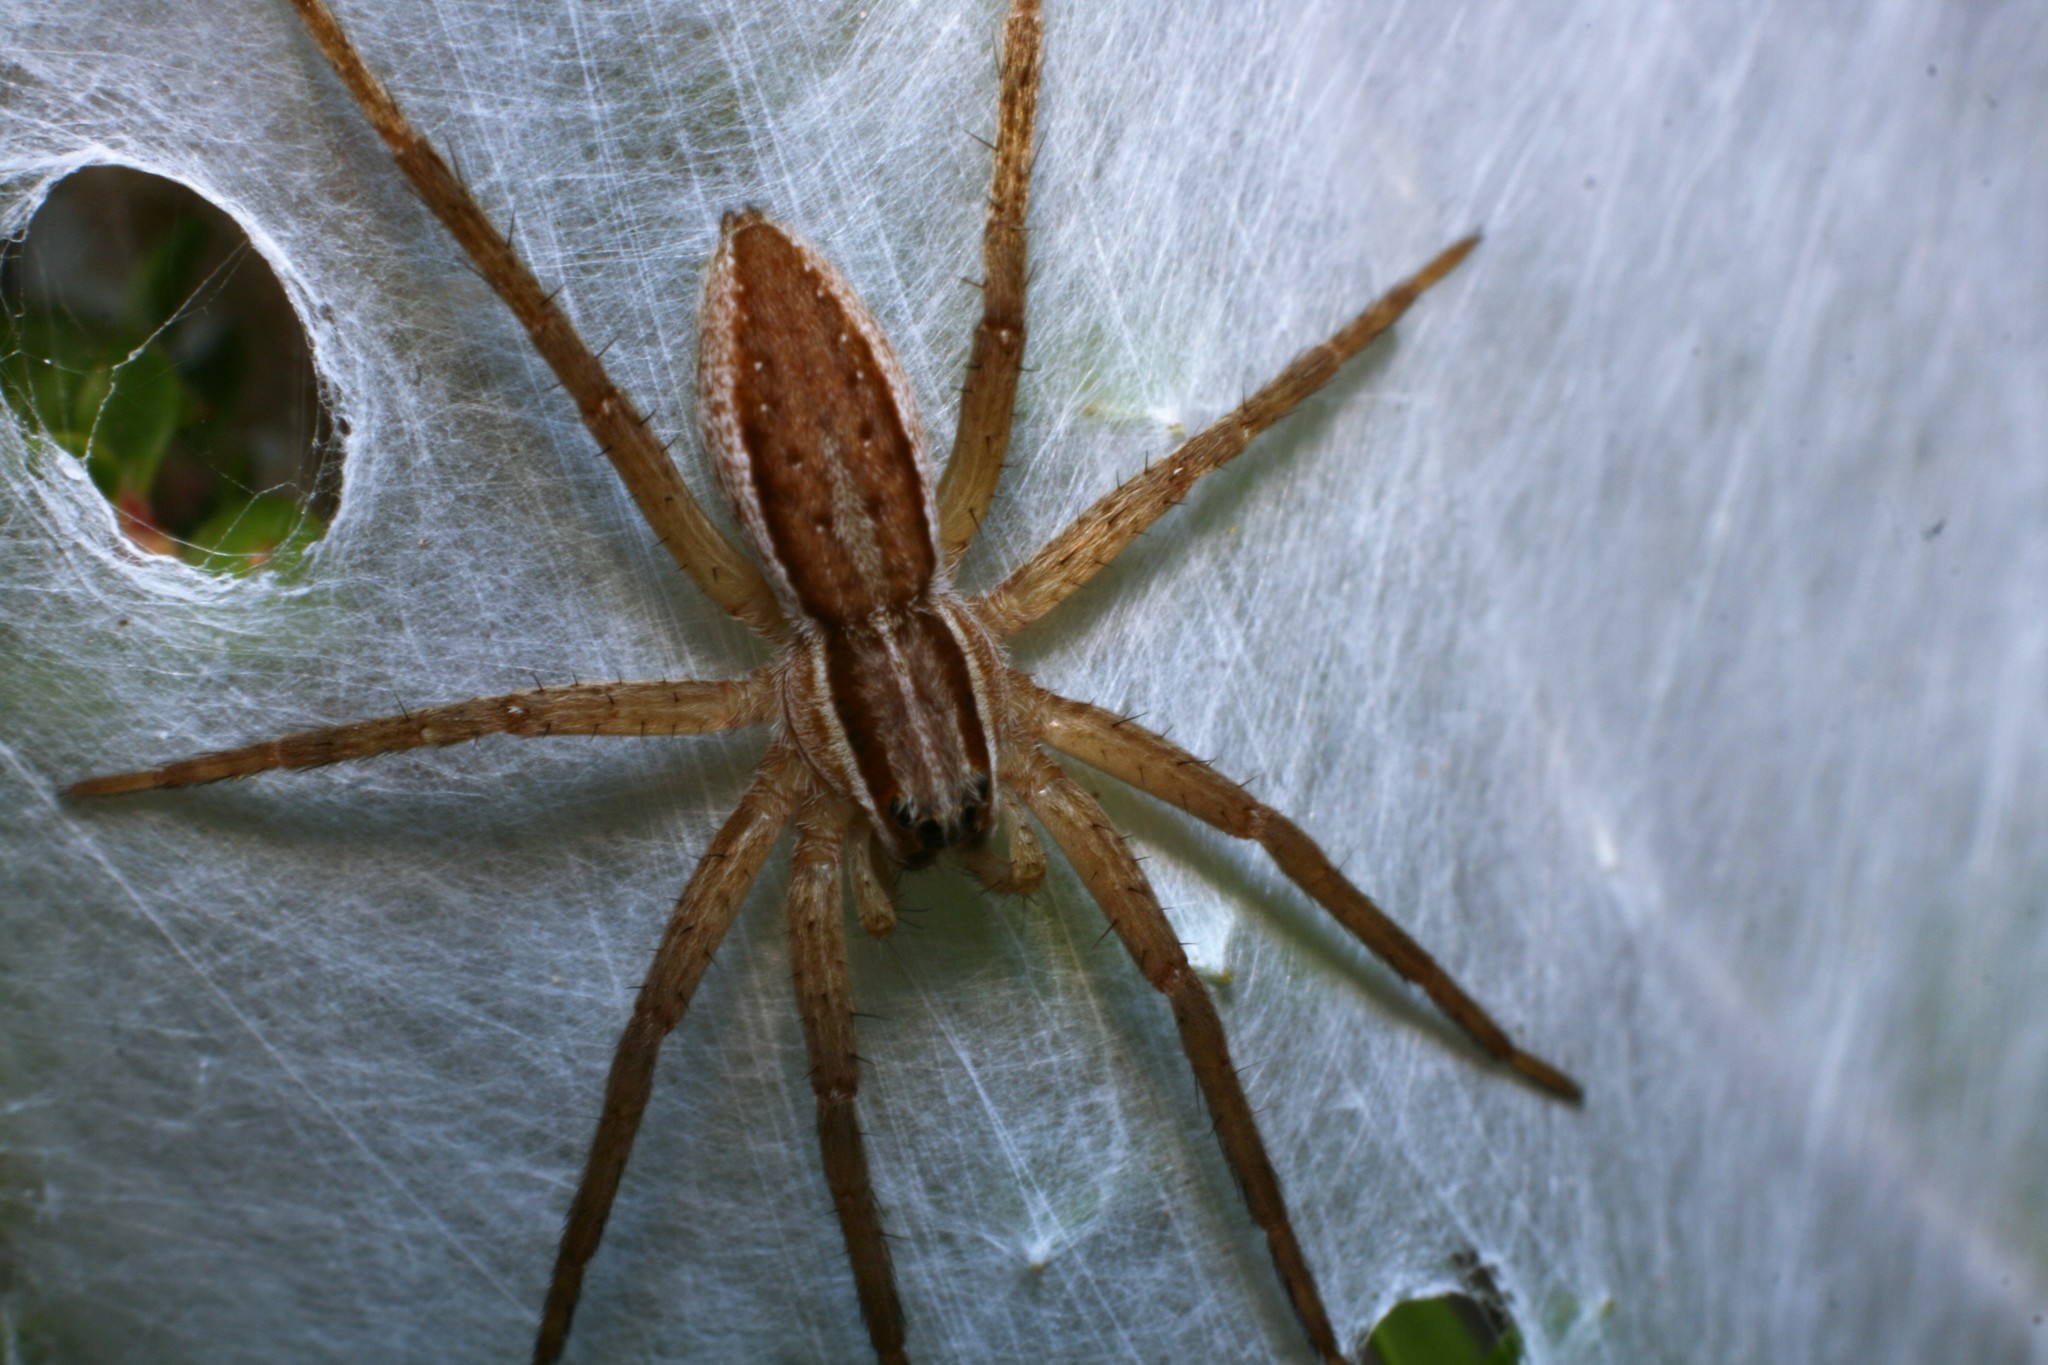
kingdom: Animalia
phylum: Arthropoda
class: Arachnida
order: Araneae
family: Pisauridae
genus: Dolomedes
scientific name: Dolomedes minor
